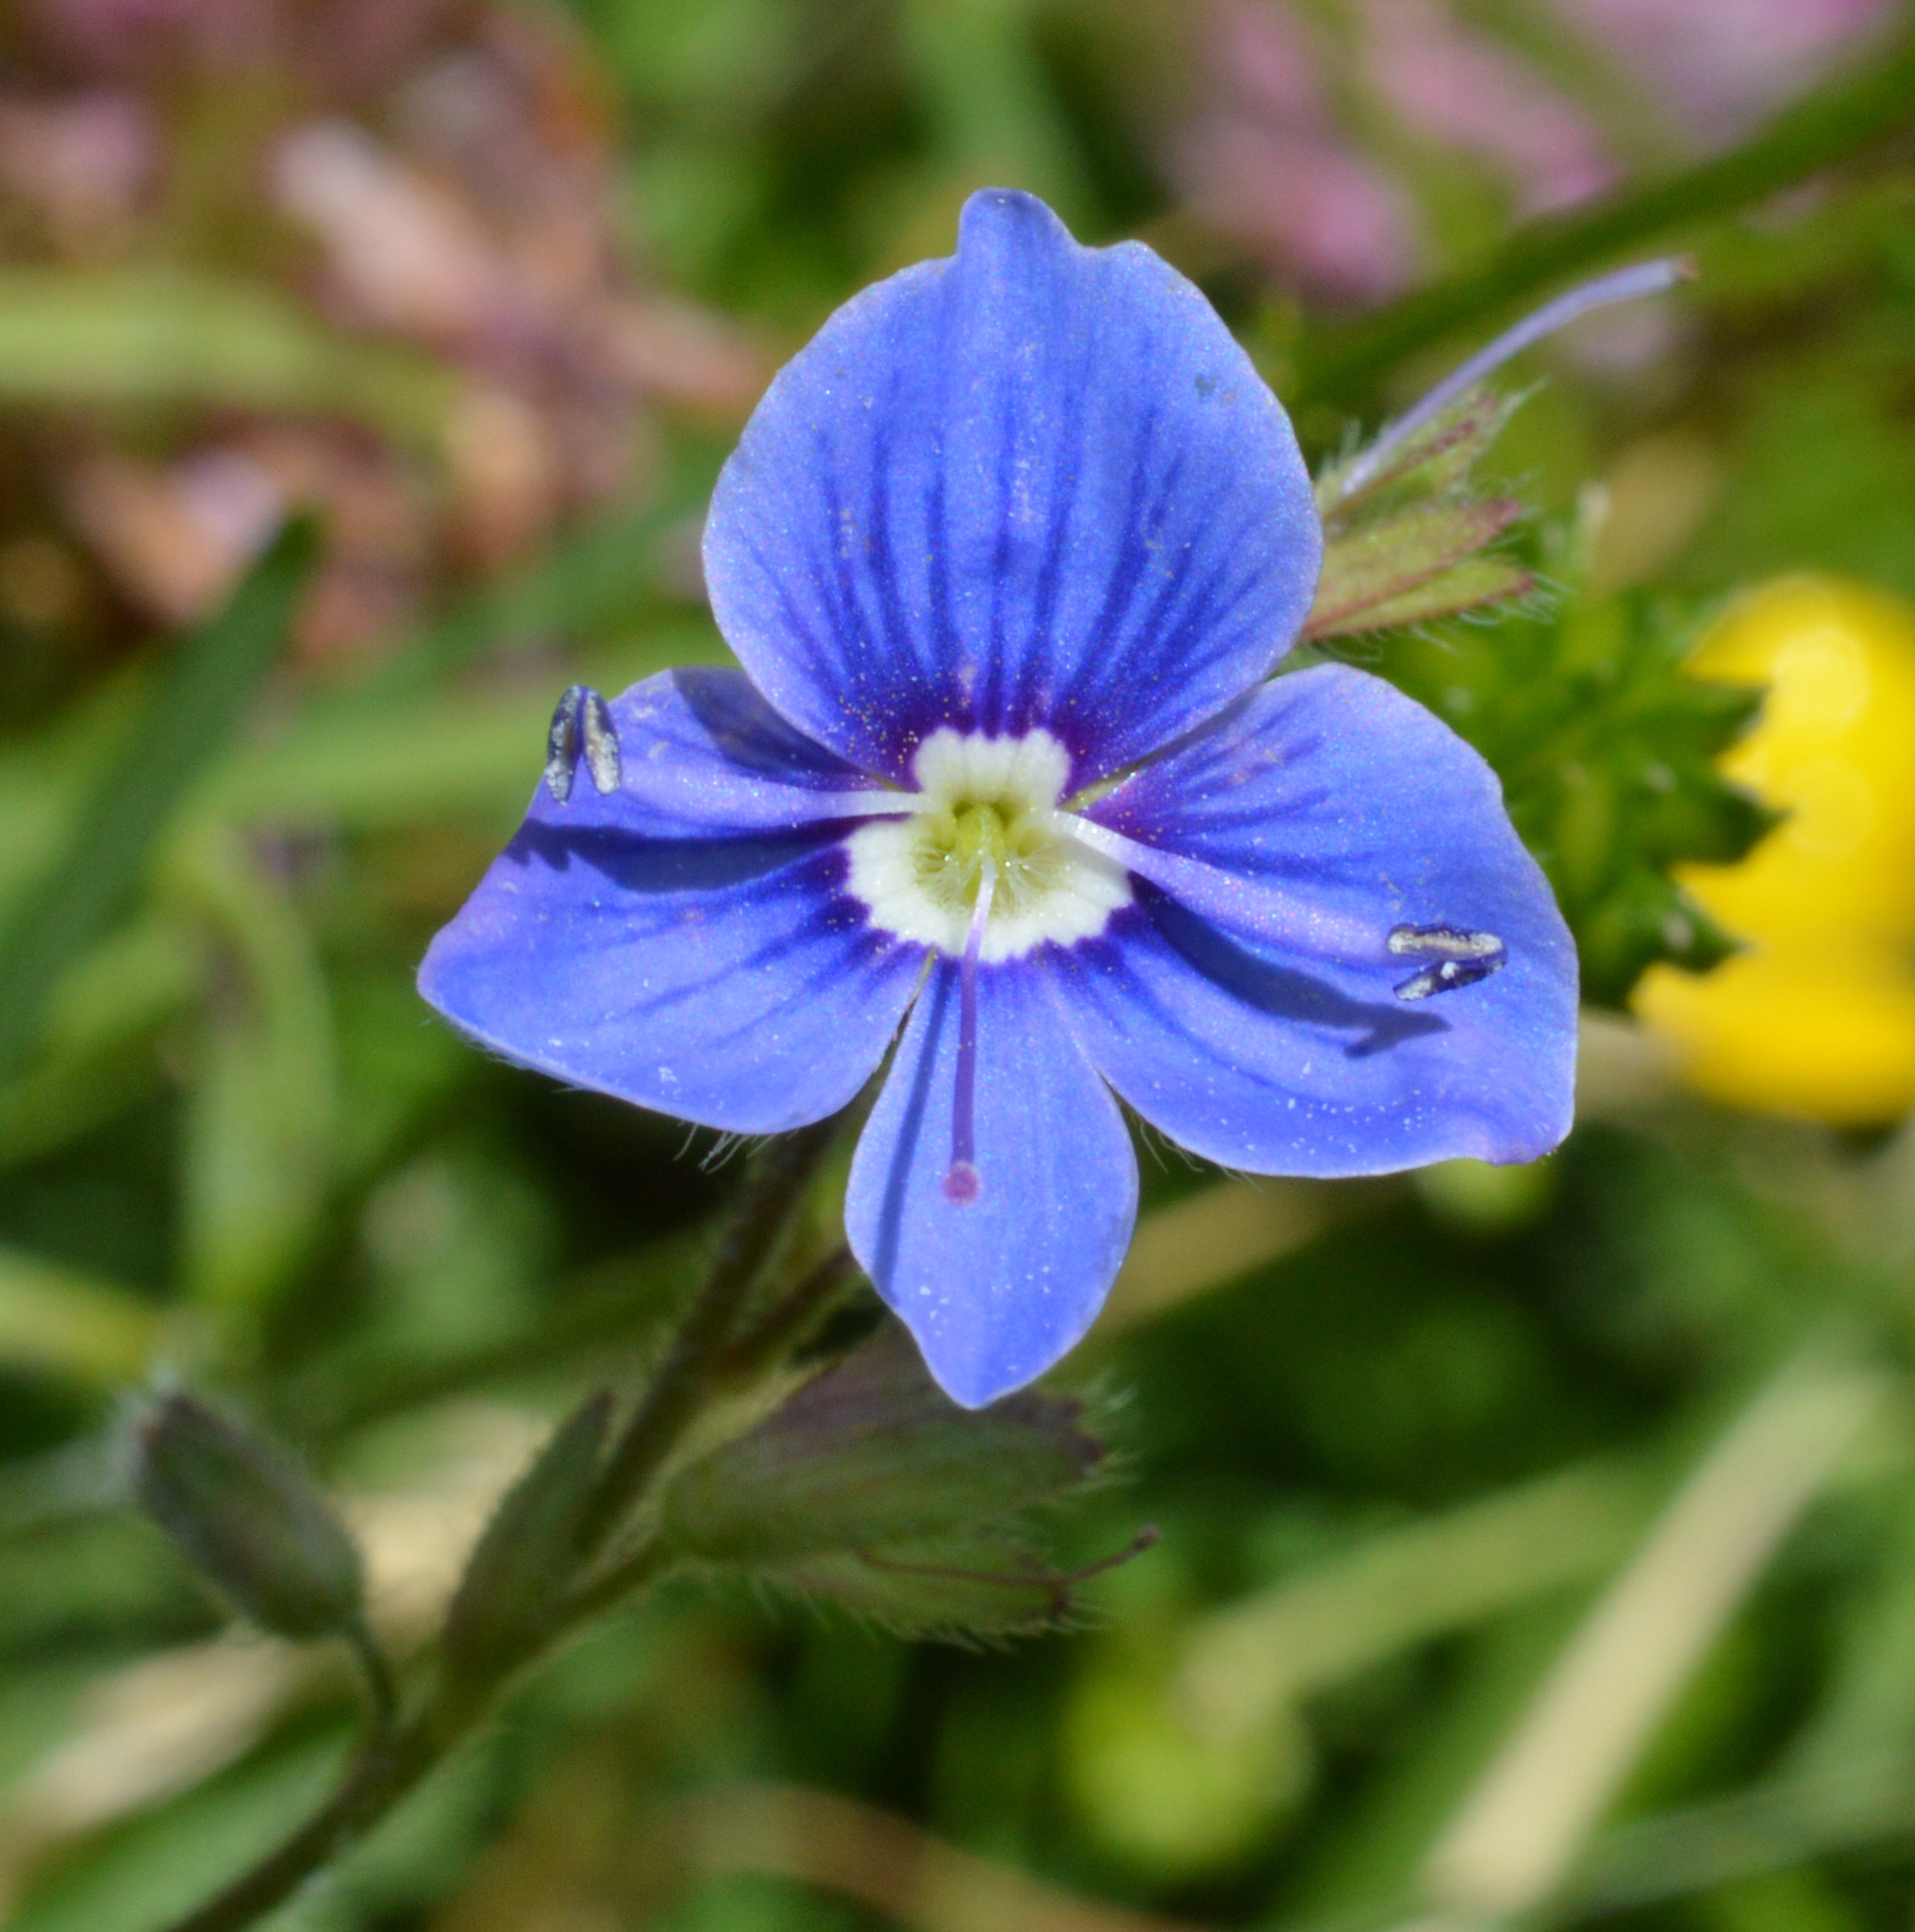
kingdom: Plantae
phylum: Tracheophyta
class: Magnoliopsida
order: Lamiales
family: Plantaginaceae
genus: Veronica
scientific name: Veronica chamaedrys
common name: Germander speedwell
